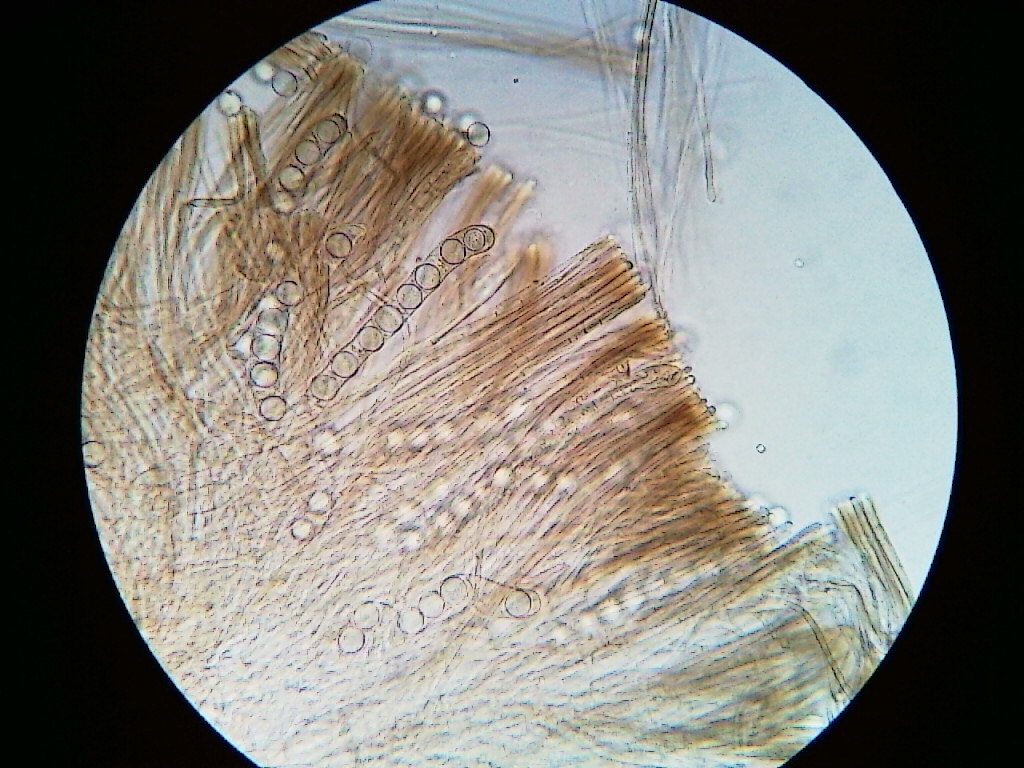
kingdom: Fungi
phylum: Ascomycota
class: Pezizomycetes
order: Pezizales
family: Sarcosomataceae
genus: Pseudoplectania
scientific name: Pseudoplectania nigrella
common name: Ebony cup
